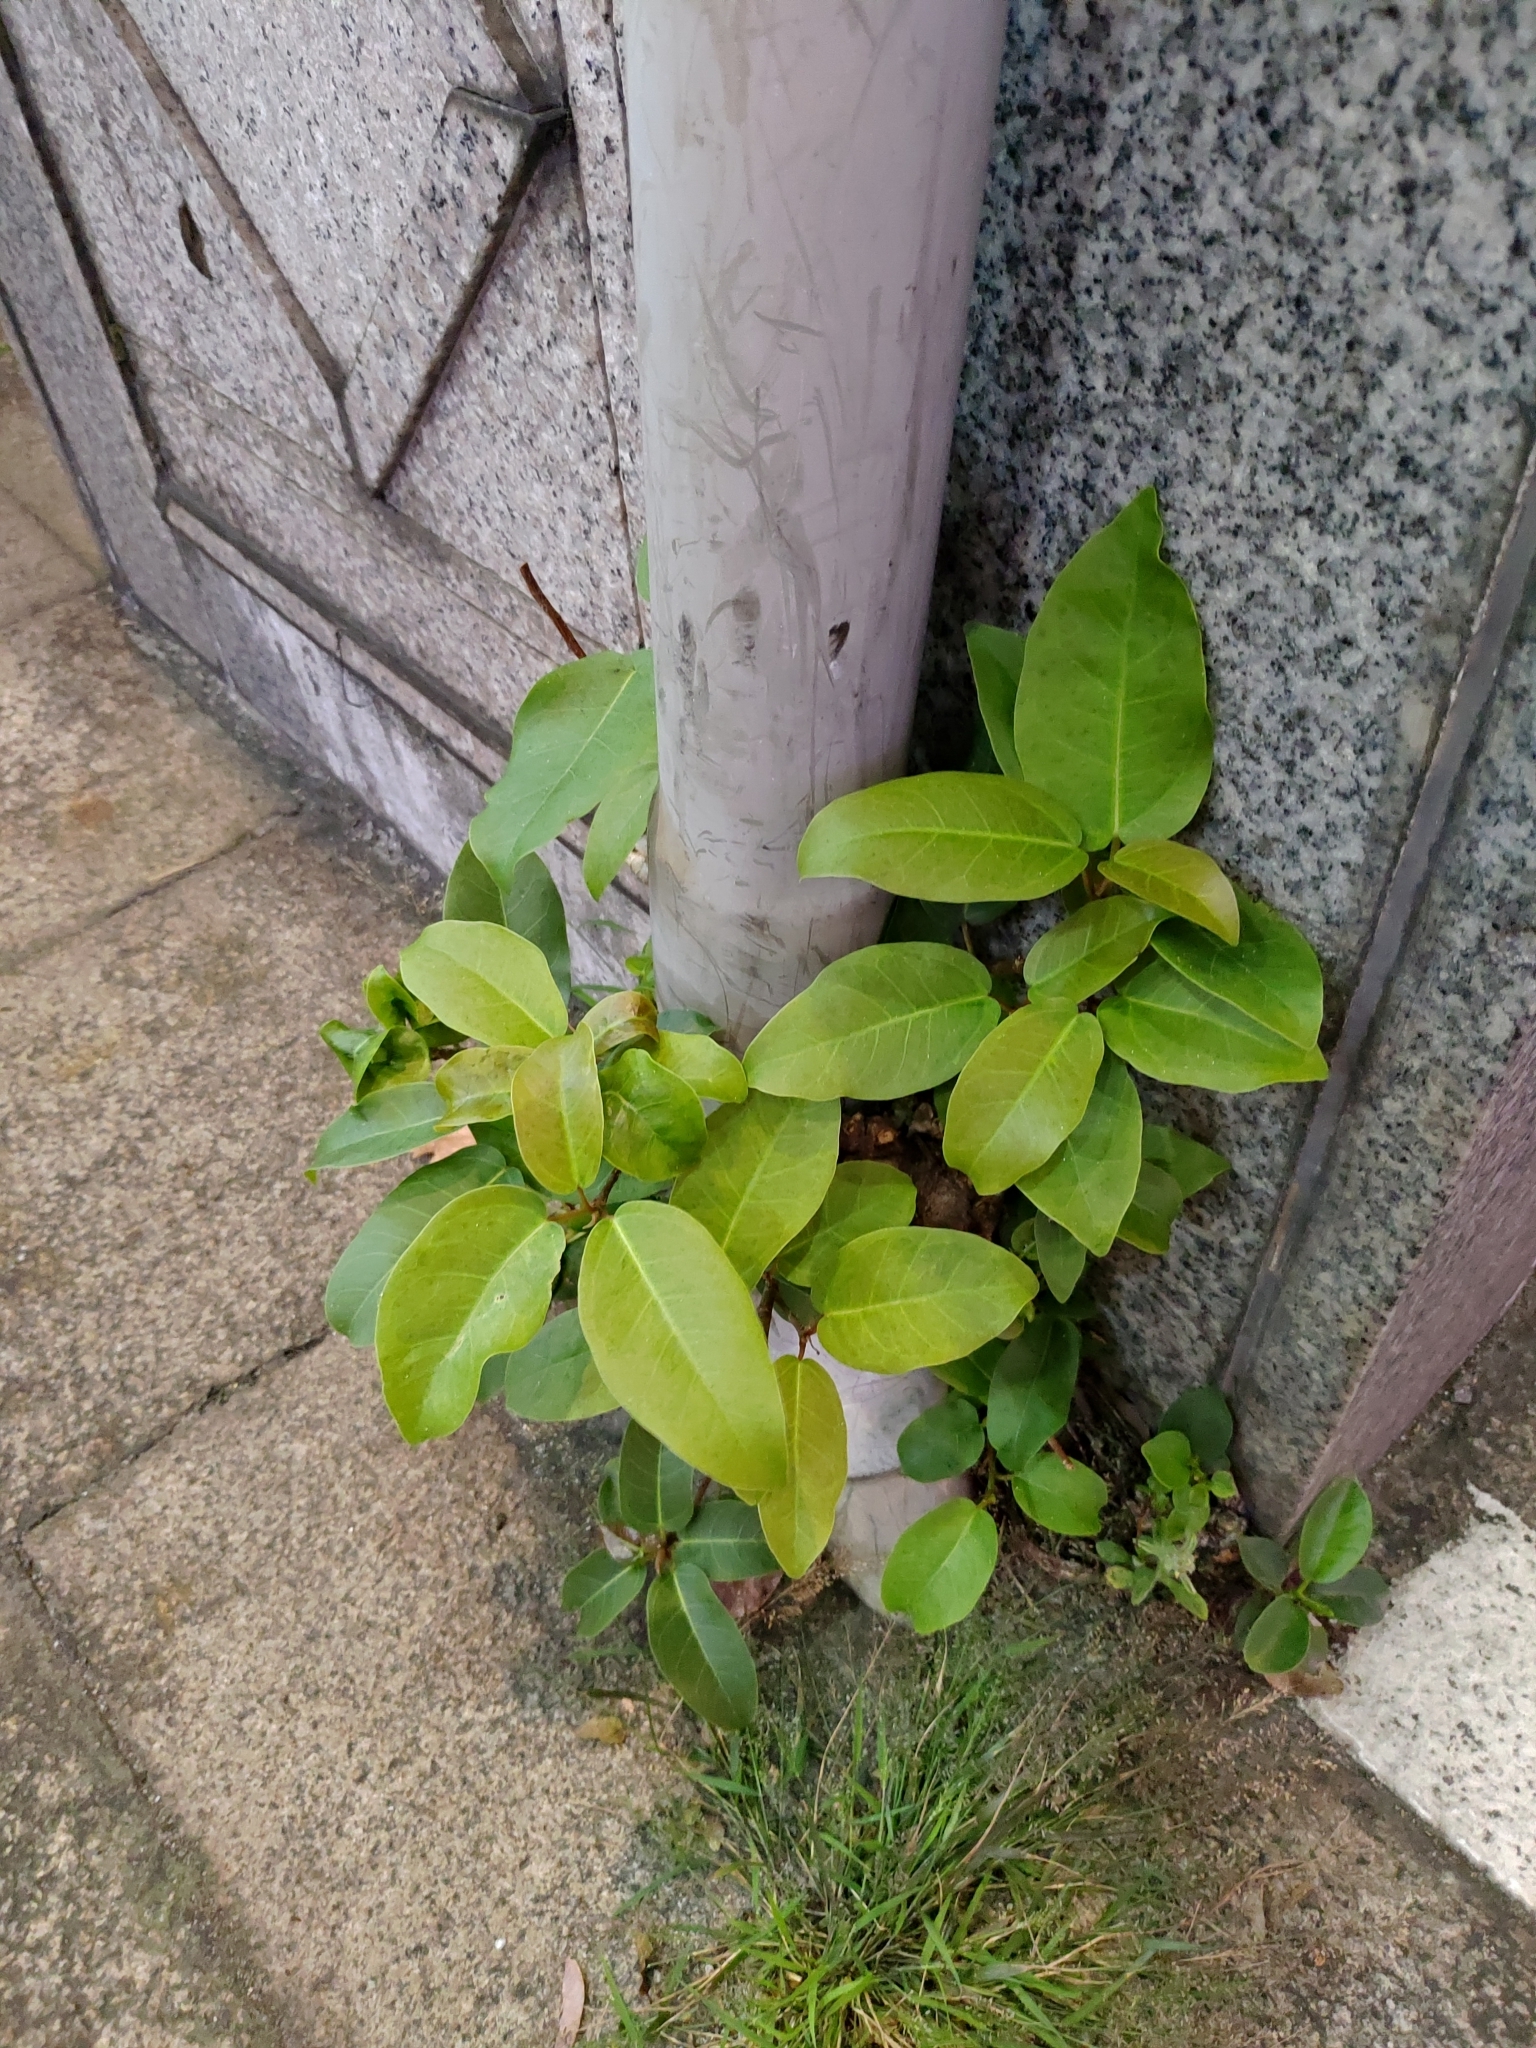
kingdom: Plantae
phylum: Tracheophyta
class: Magnoliopsida
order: Rosales
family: Moraceae
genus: Ficus
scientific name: Ficus subpisocarpa
